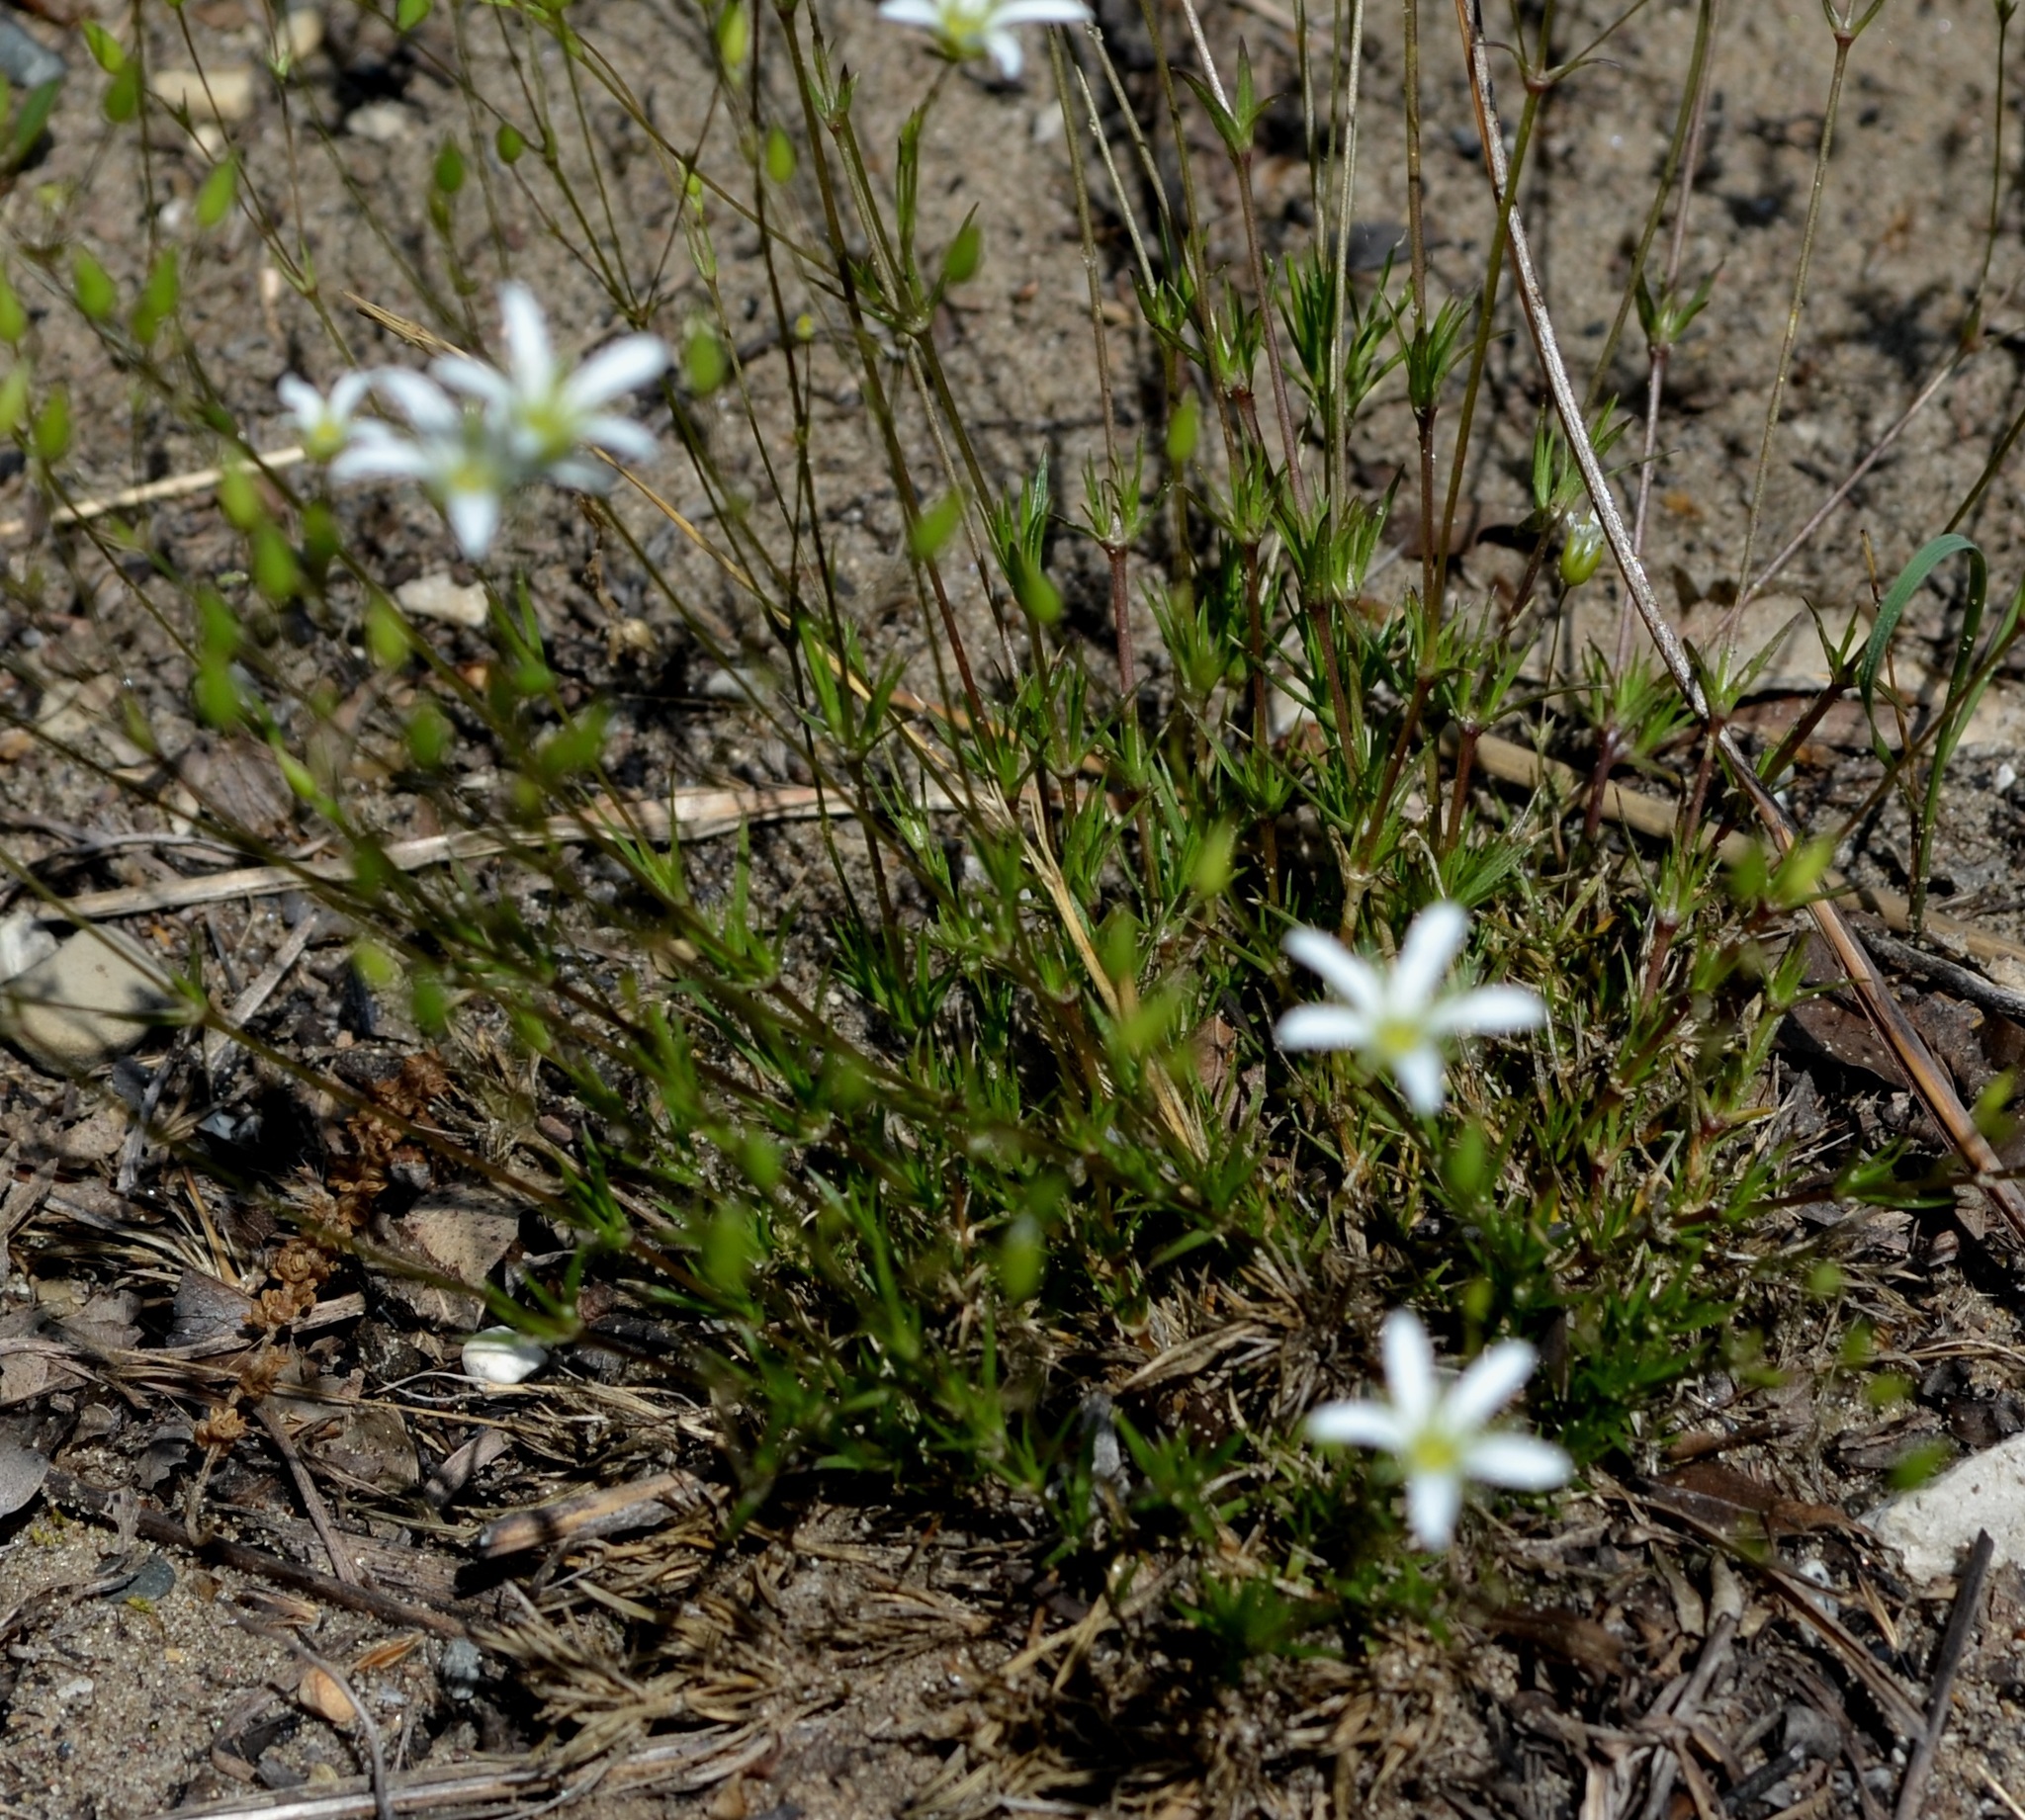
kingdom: Plantae
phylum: Tracheophyta
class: Magnoliopsida
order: Caryophyllales
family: Caryophyllaceae
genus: Sabulina
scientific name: Sabulina michauxii
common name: Michaux's stitchwort
